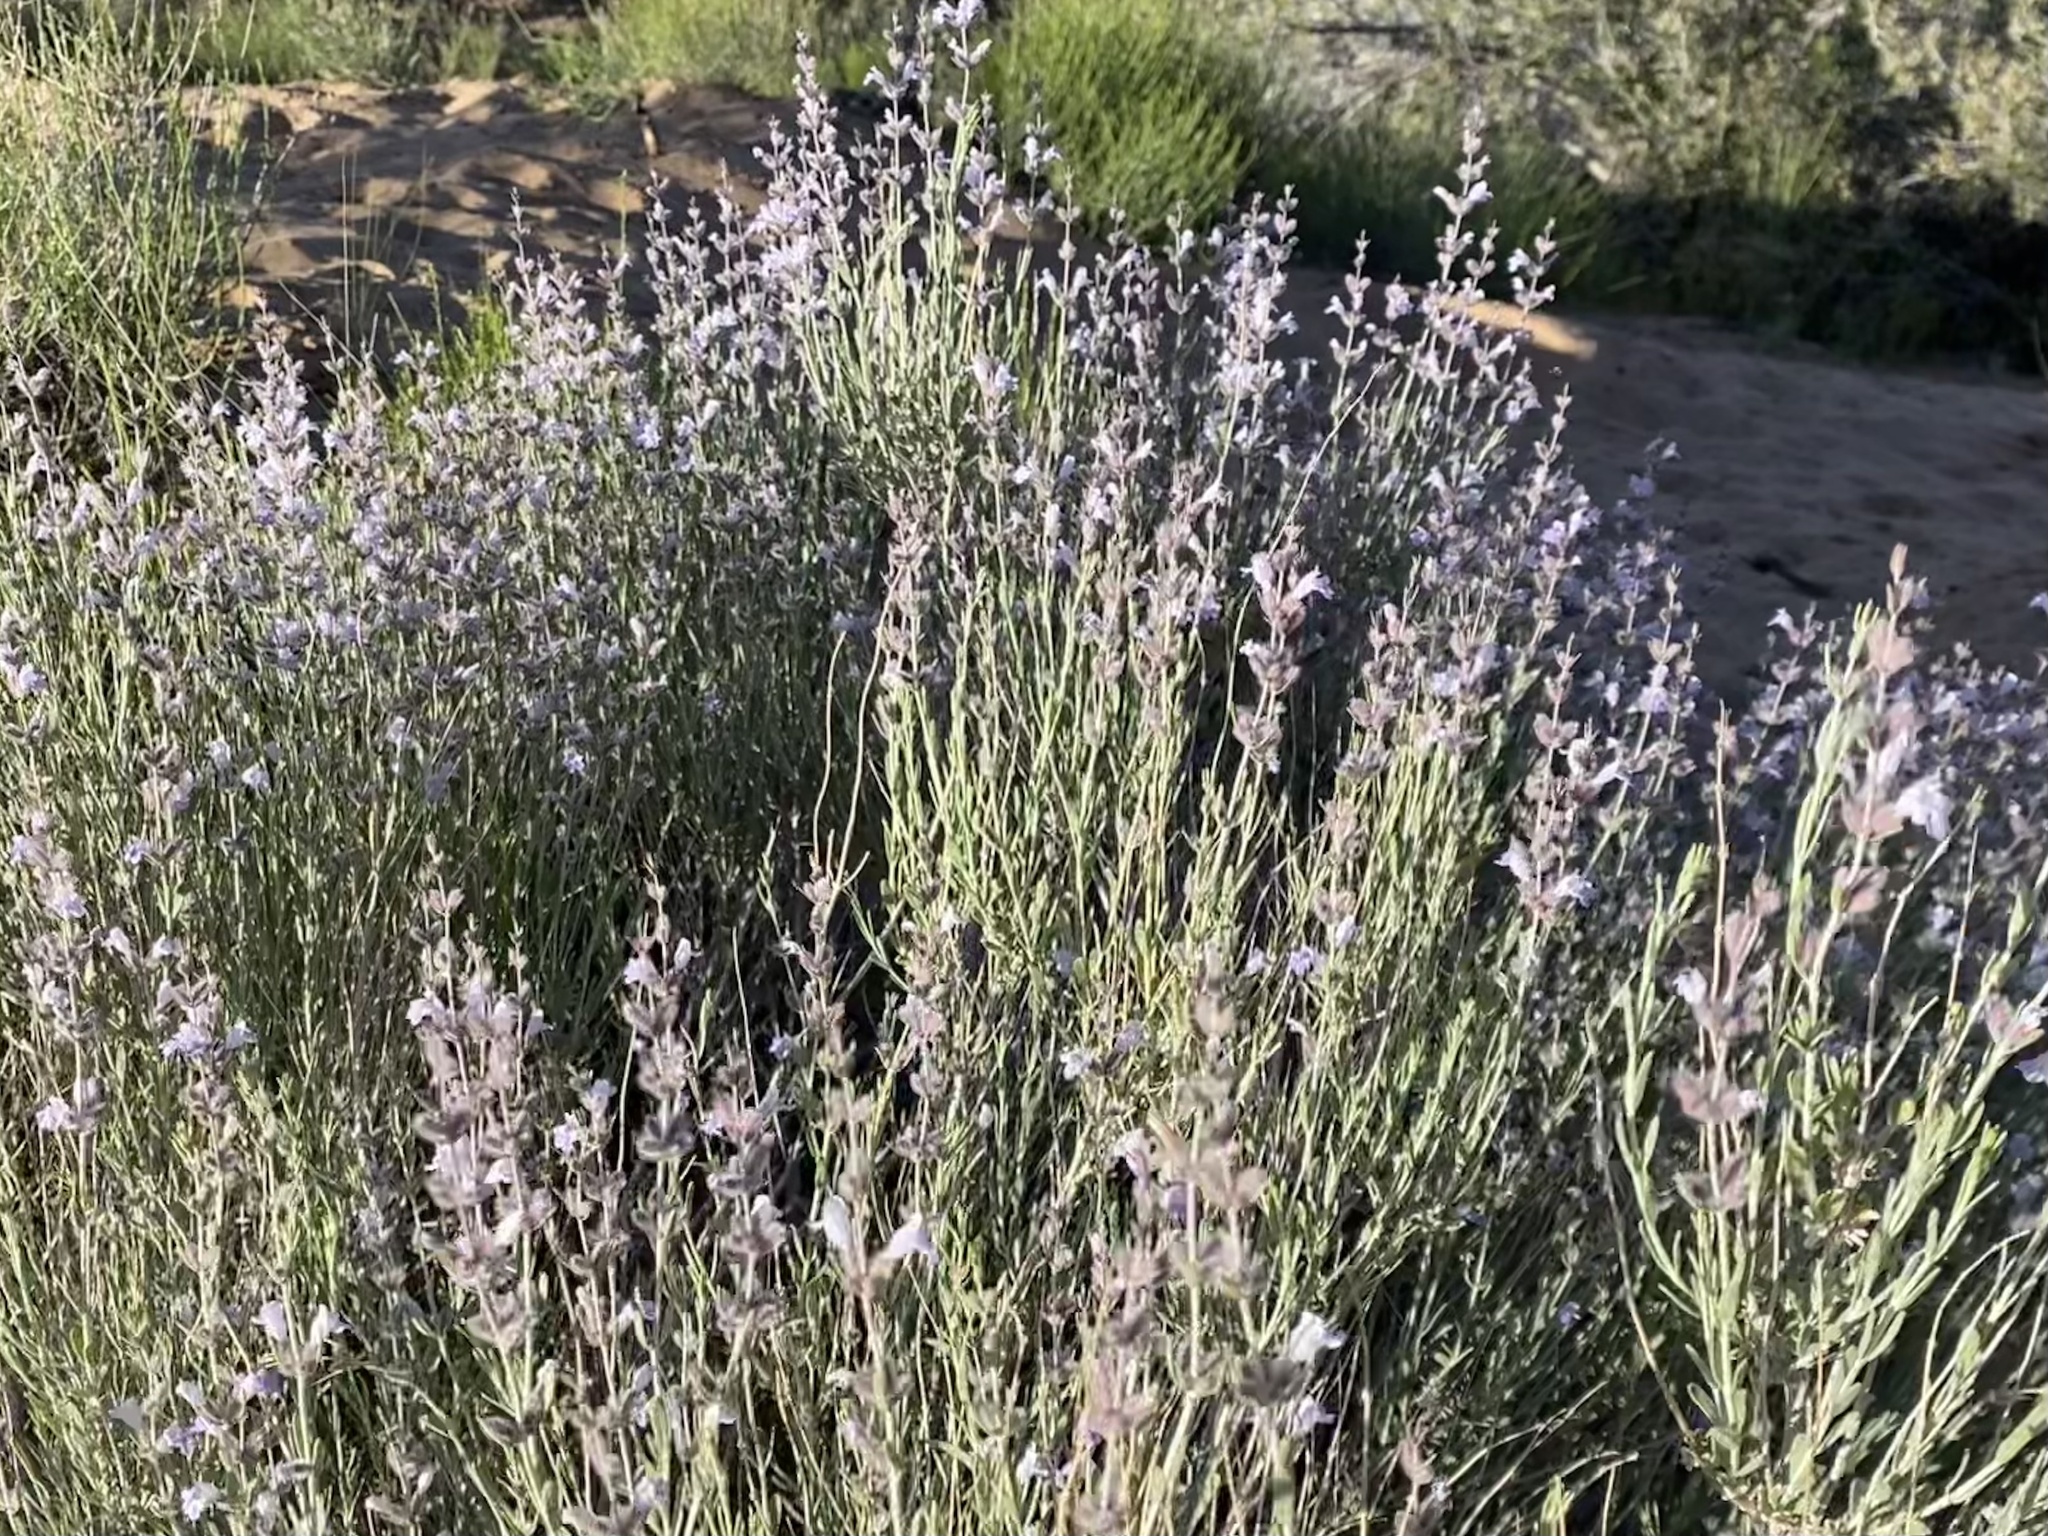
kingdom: Plantae
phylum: Tracheophyta
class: Magnoliopsida
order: Lamiales
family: Lamiaceae
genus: Poliomintha
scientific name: Poliomintha incana
